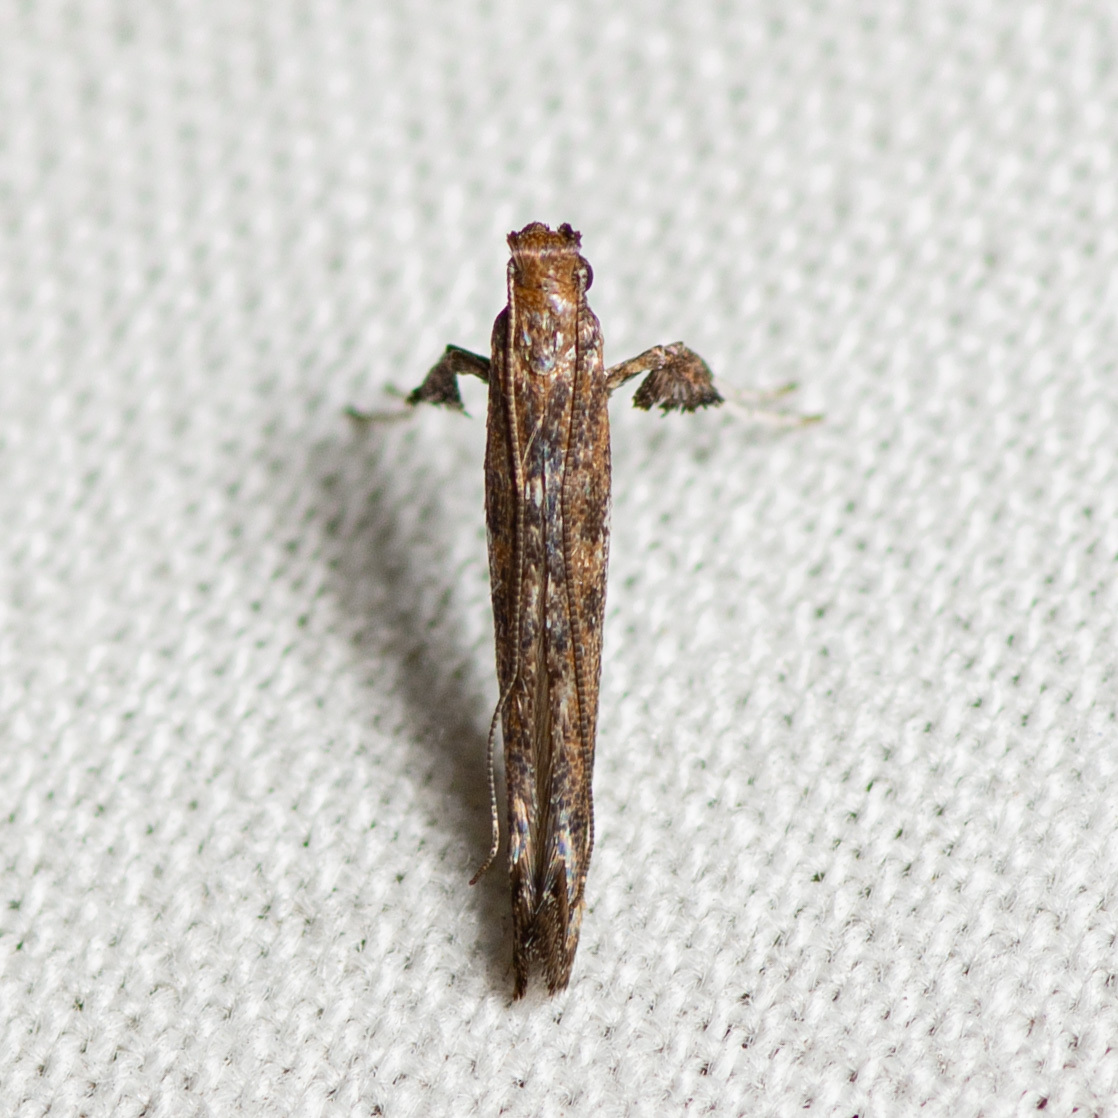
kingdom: Animalia
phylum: Arthropoda
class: Insecta
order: Lepidoptera
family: Gracillariidae
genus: Caloptilia
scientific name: Caloptilia rhoifoliella
